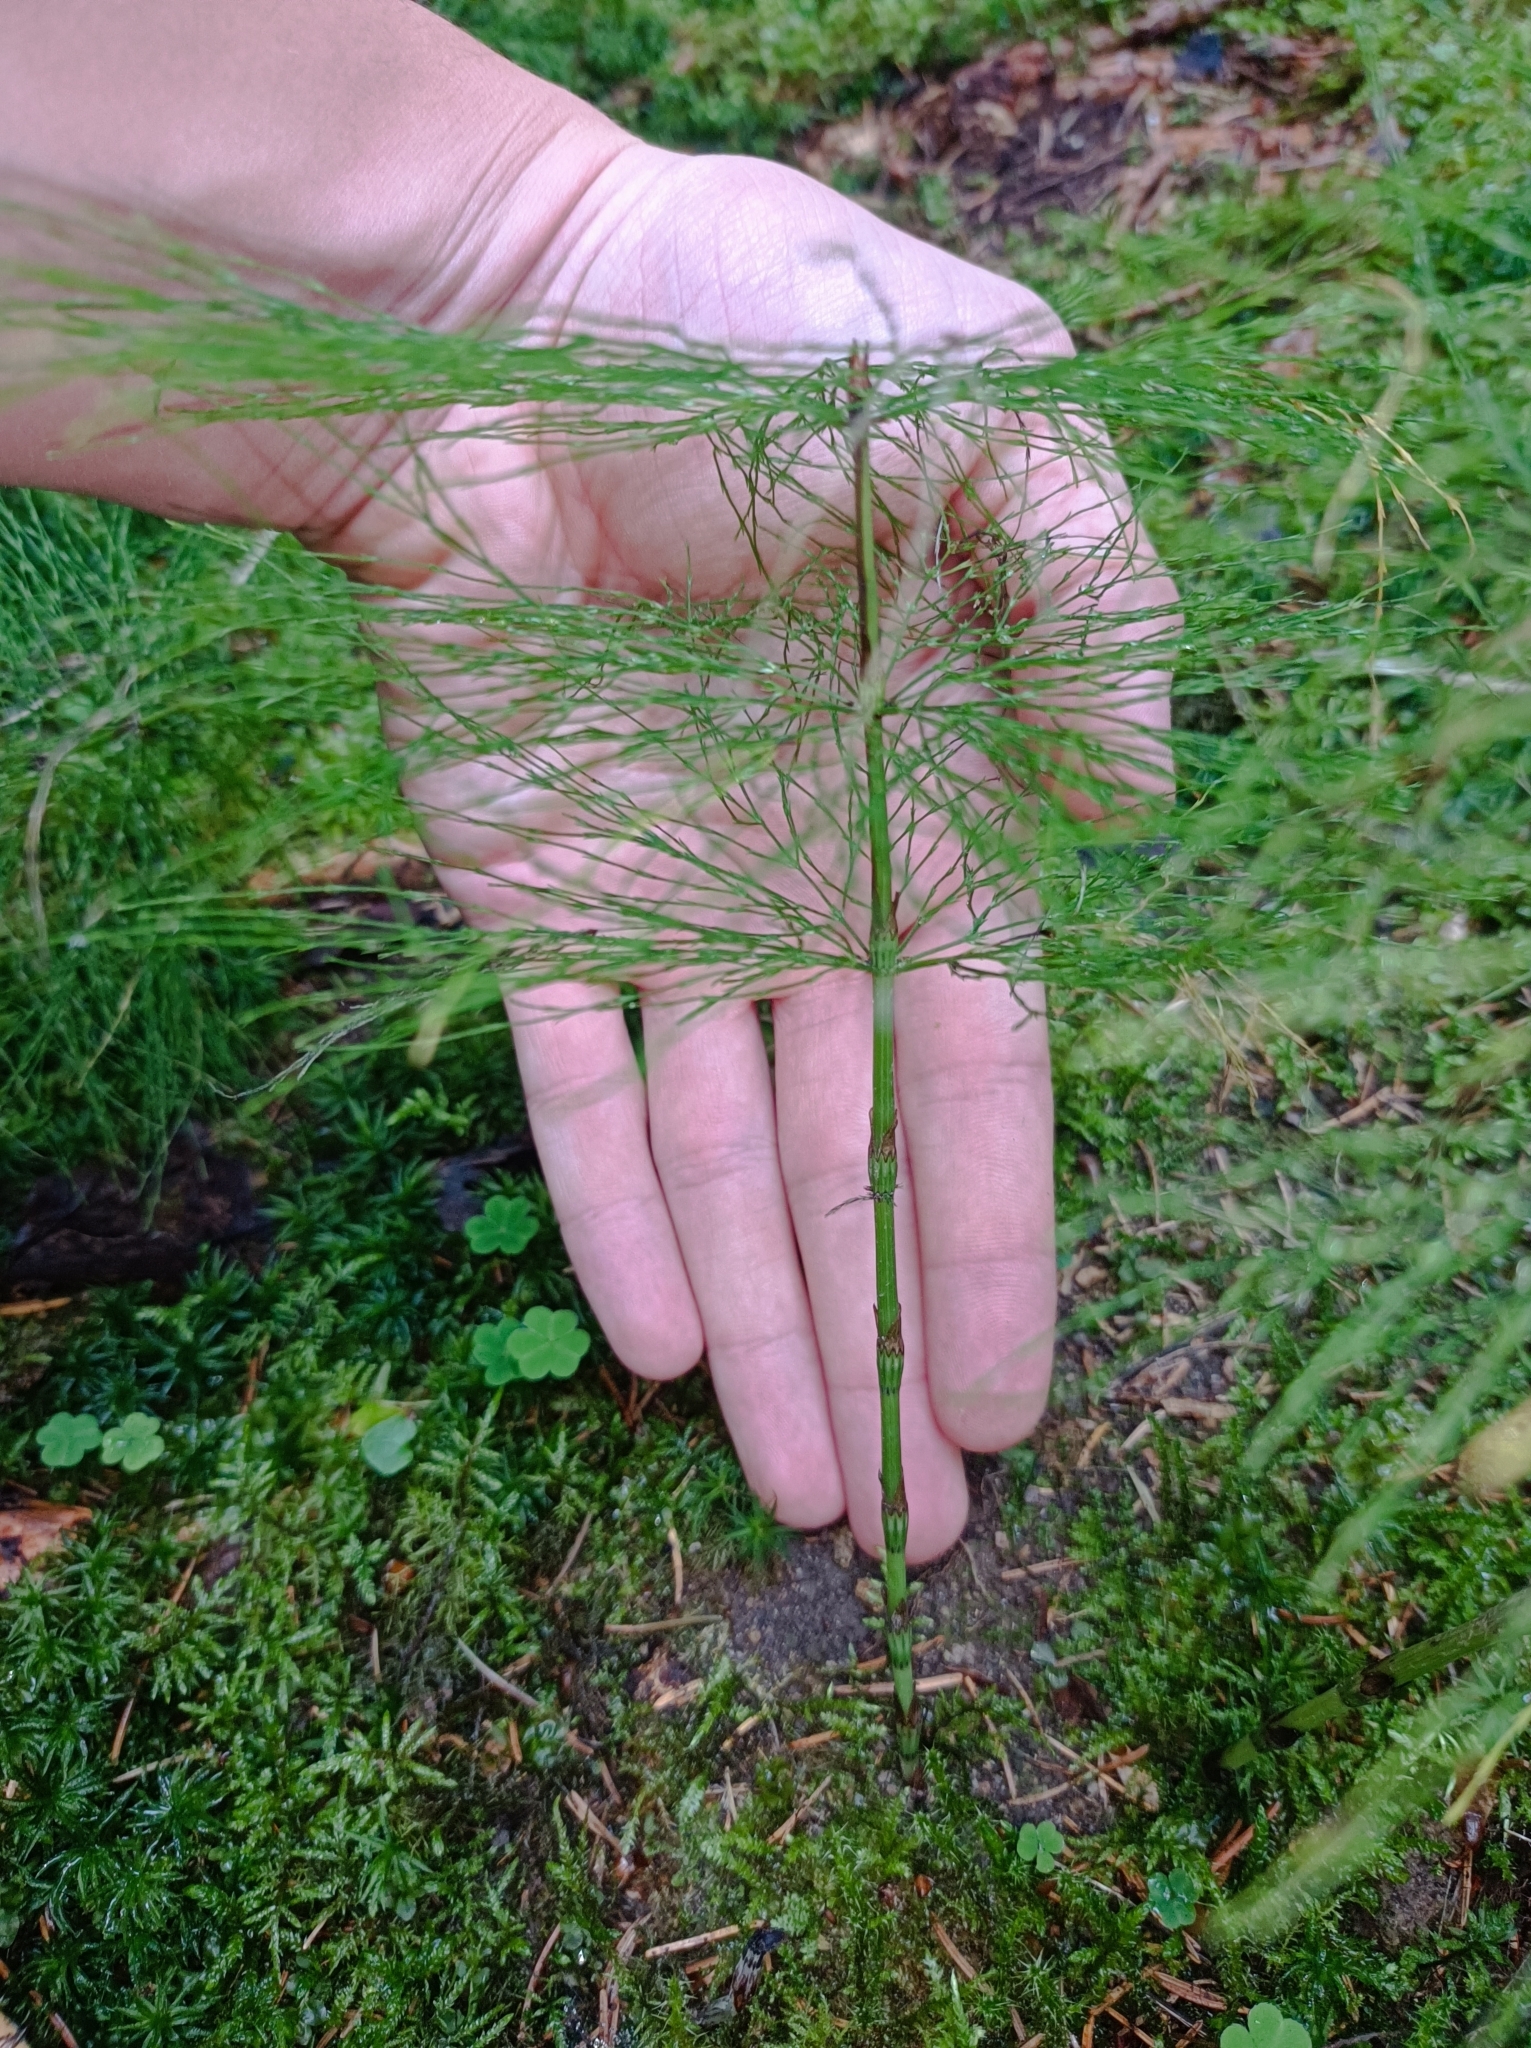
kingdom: Plantae
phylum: Tracheophyta
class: Polypodiopsida
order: Equisetales
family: Equisetaceae
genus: Equisetum
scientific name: Equisetum sylvaticum
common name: Wood horsetail
